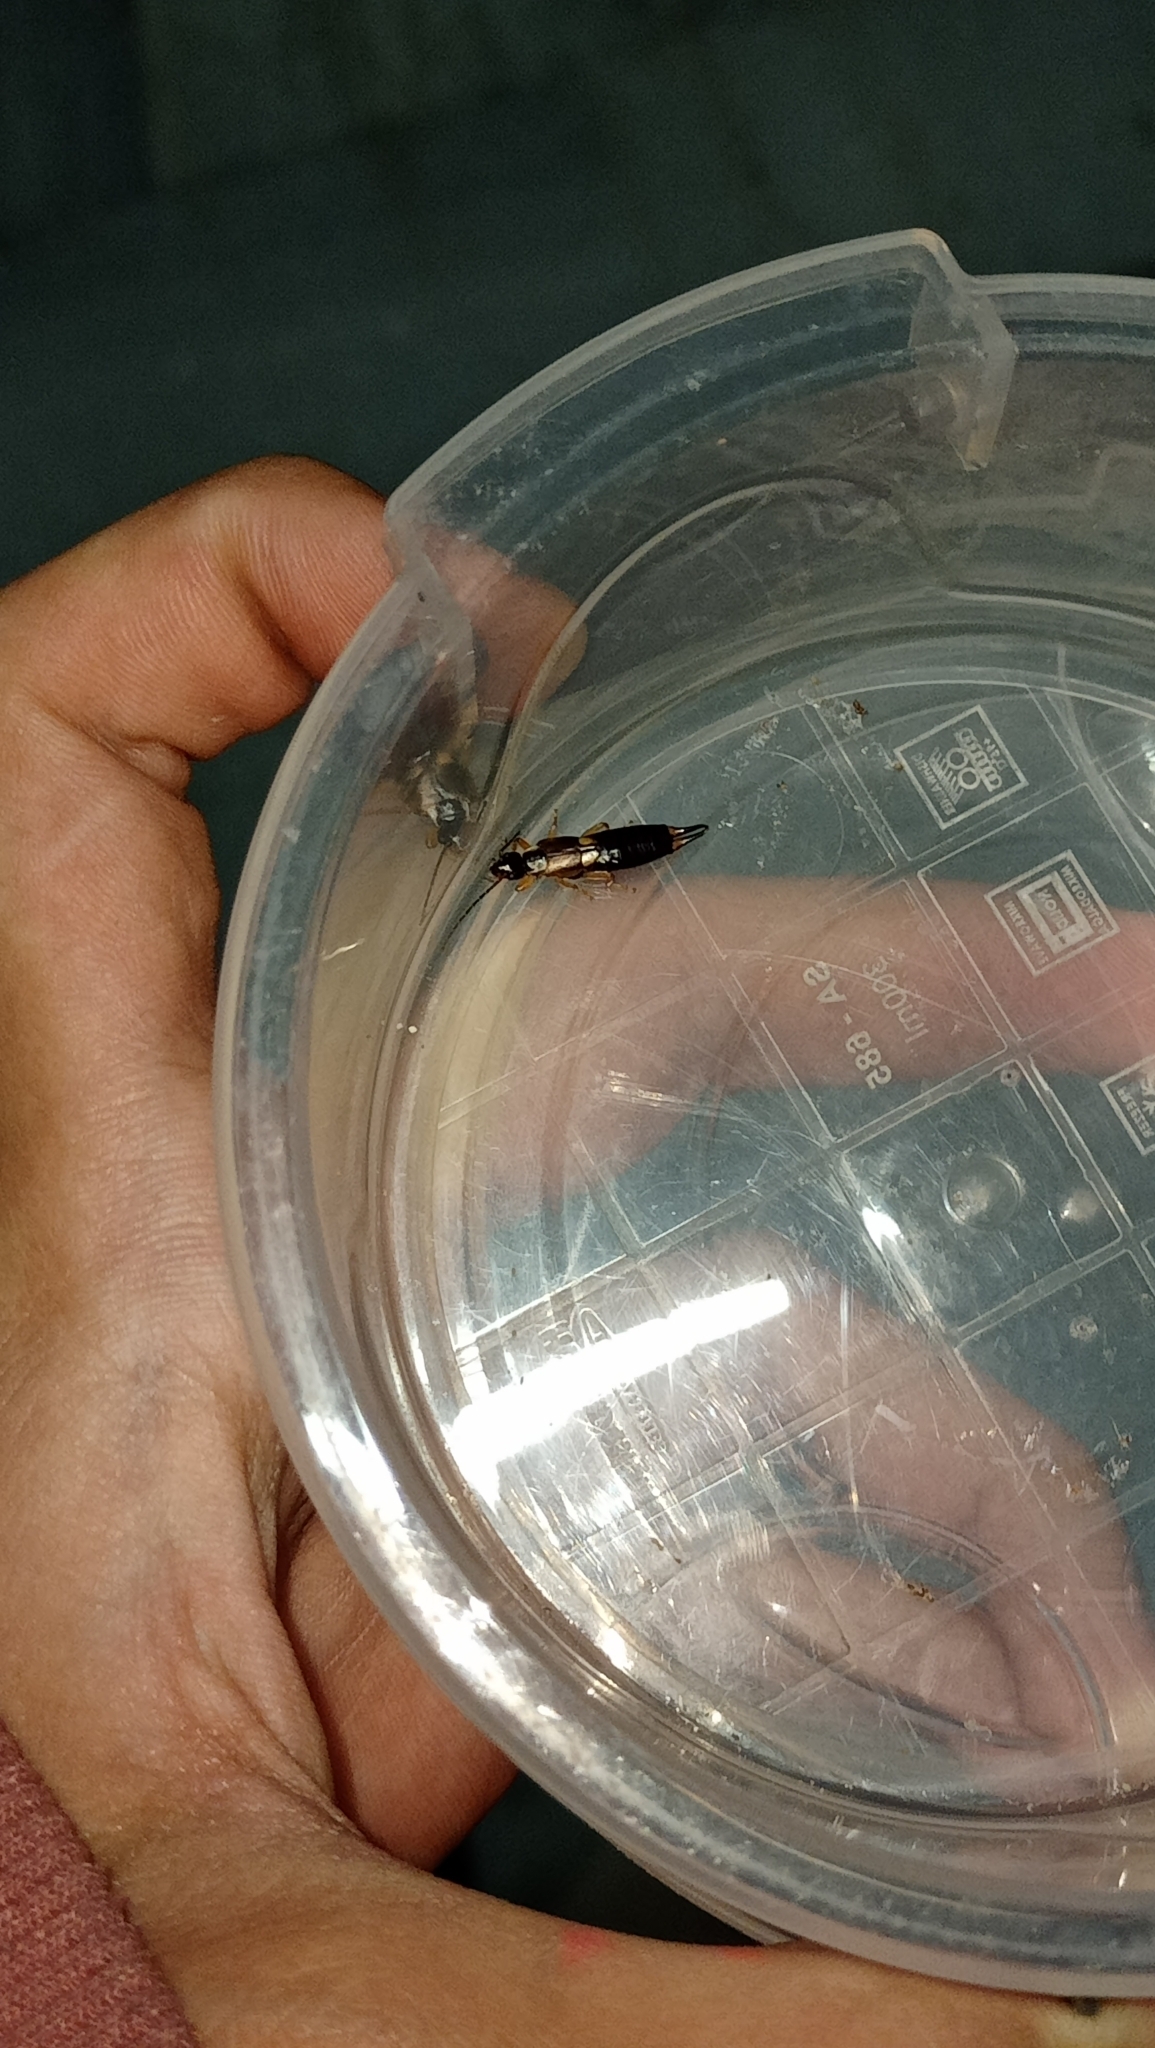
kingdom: Animalia
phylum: Arthropoda
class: Insecta
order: Dermaptera
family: Forficulidae
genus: Forficula
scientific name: Forficula lurida
